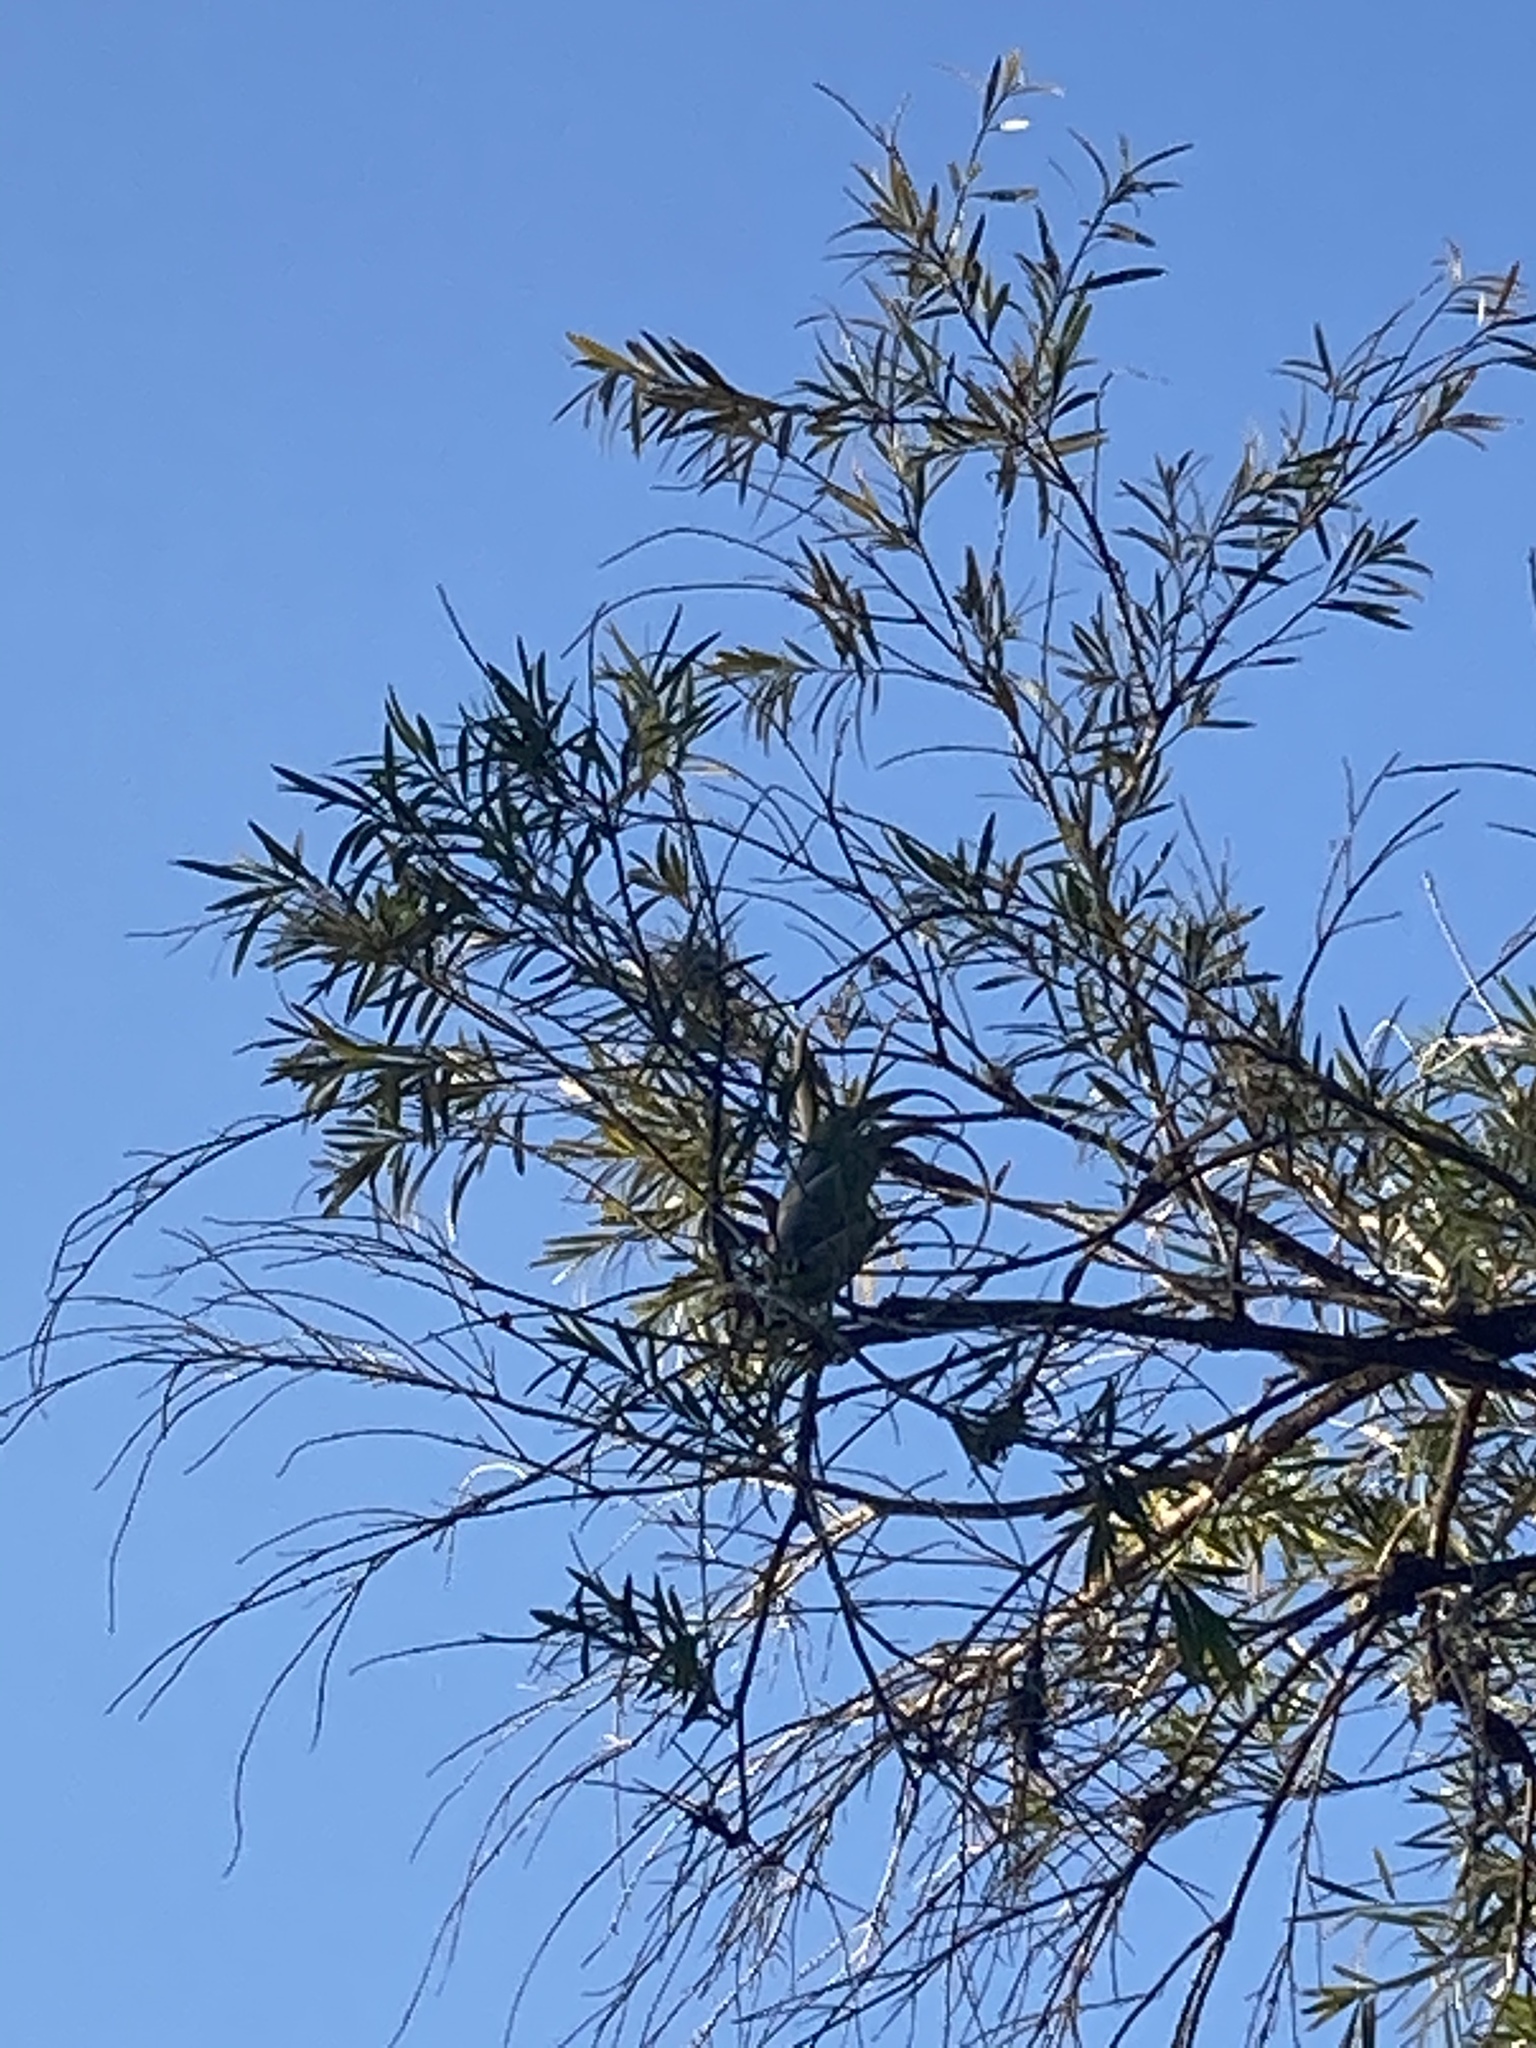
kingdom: Plantae
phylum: Tracheophyta
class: Liliopsida
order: Poales
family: Bromeliaceae
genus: Tillandsia
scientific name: Tillandsia flexuosa
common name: Banded airplant
